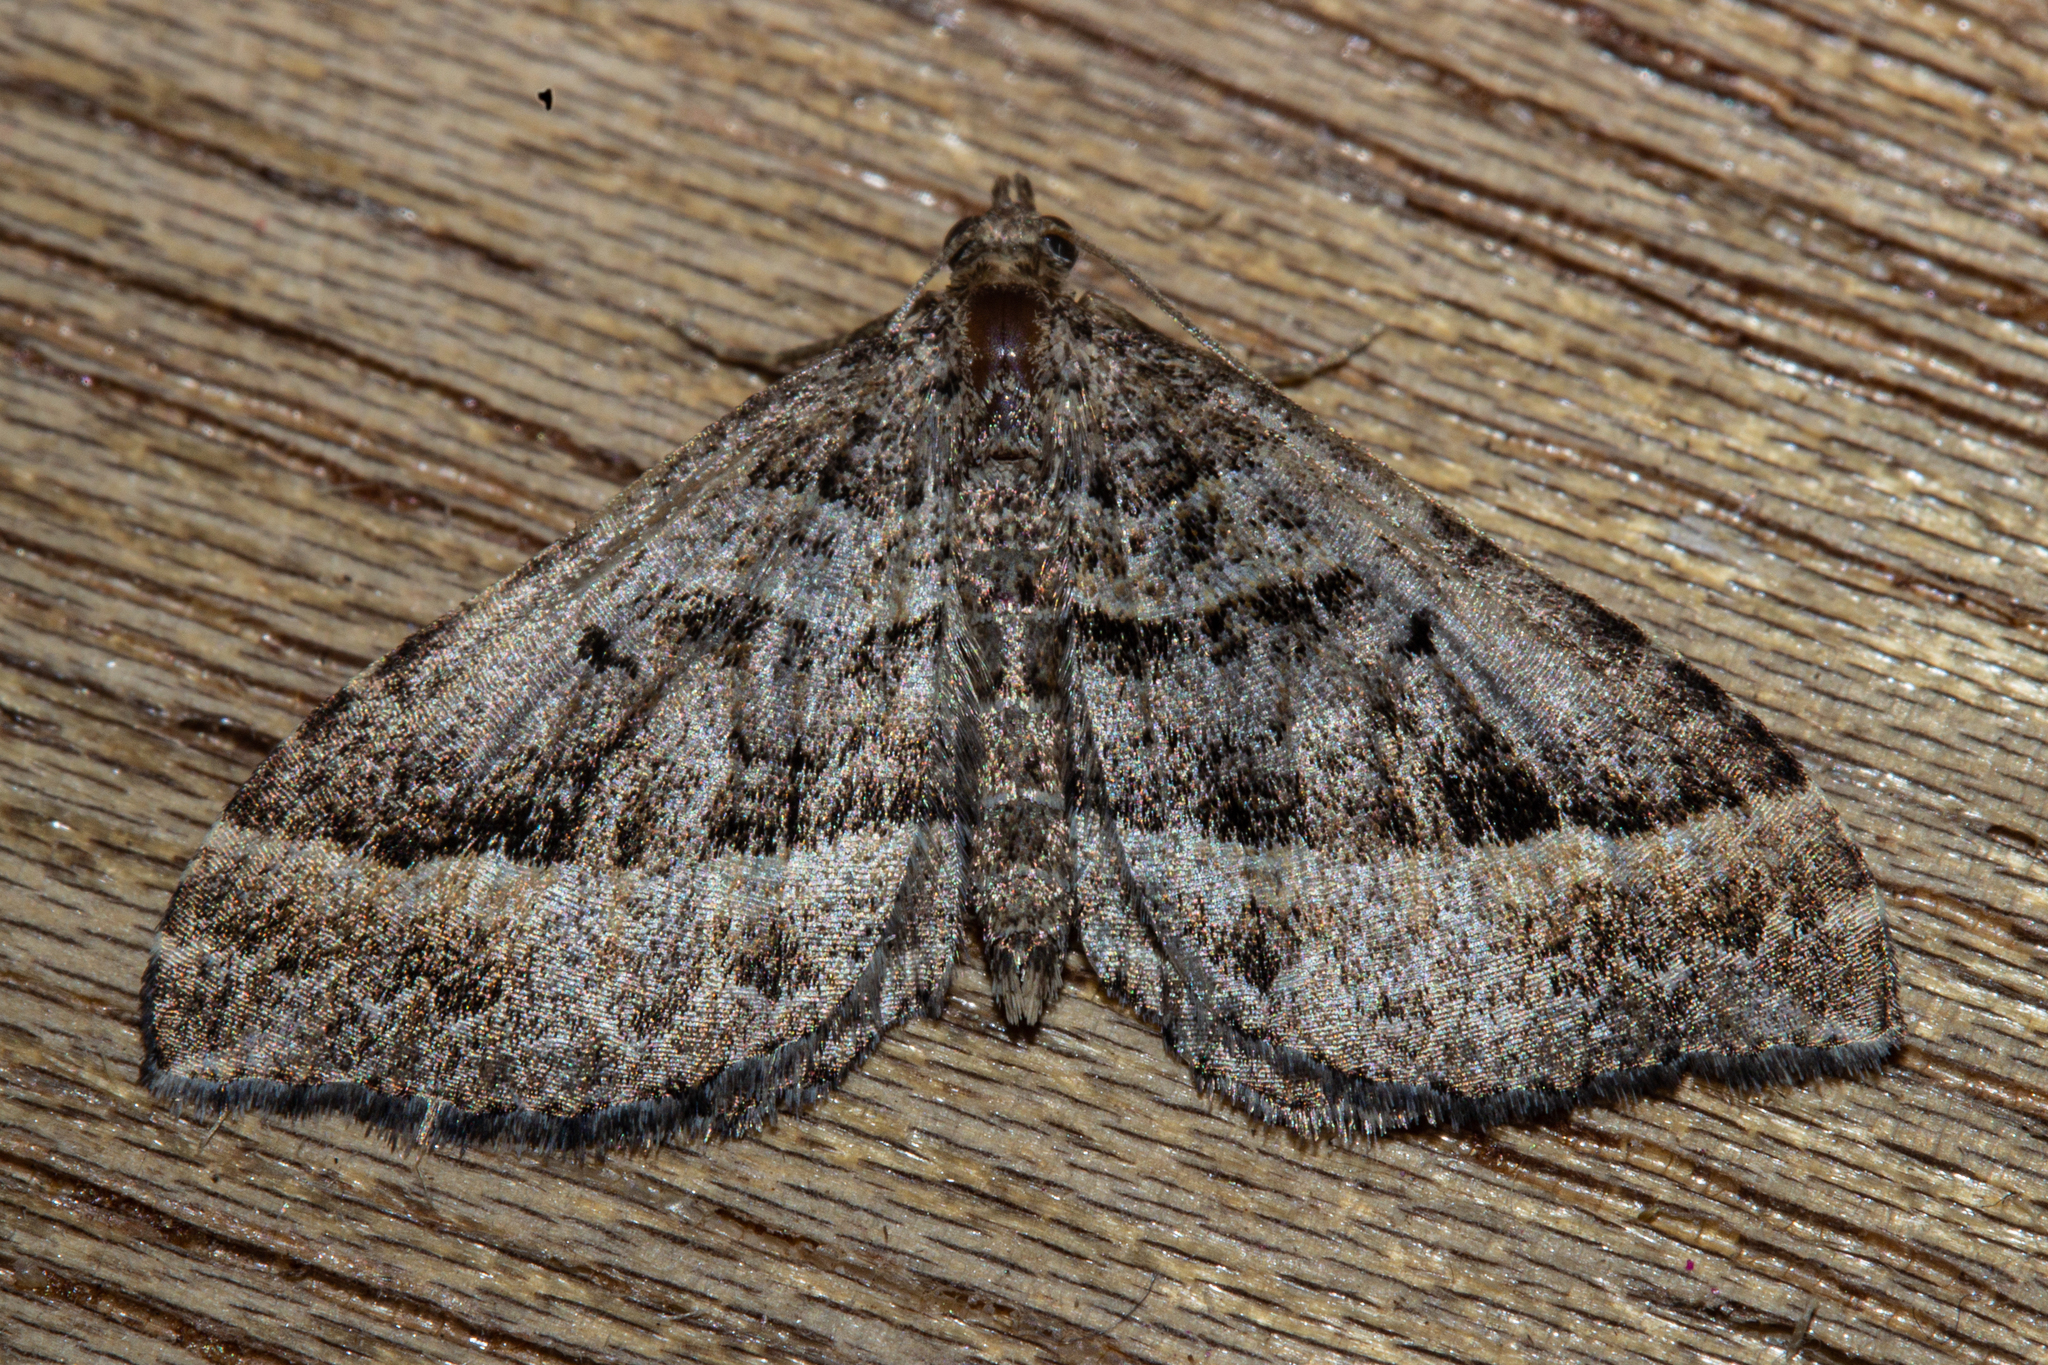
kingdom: Animalia
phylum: Arthropoda
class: Insecta
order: Lepidoptera
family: Geometridae
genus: Chrysolarentia
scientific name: Chrysolarentia subrectaria
